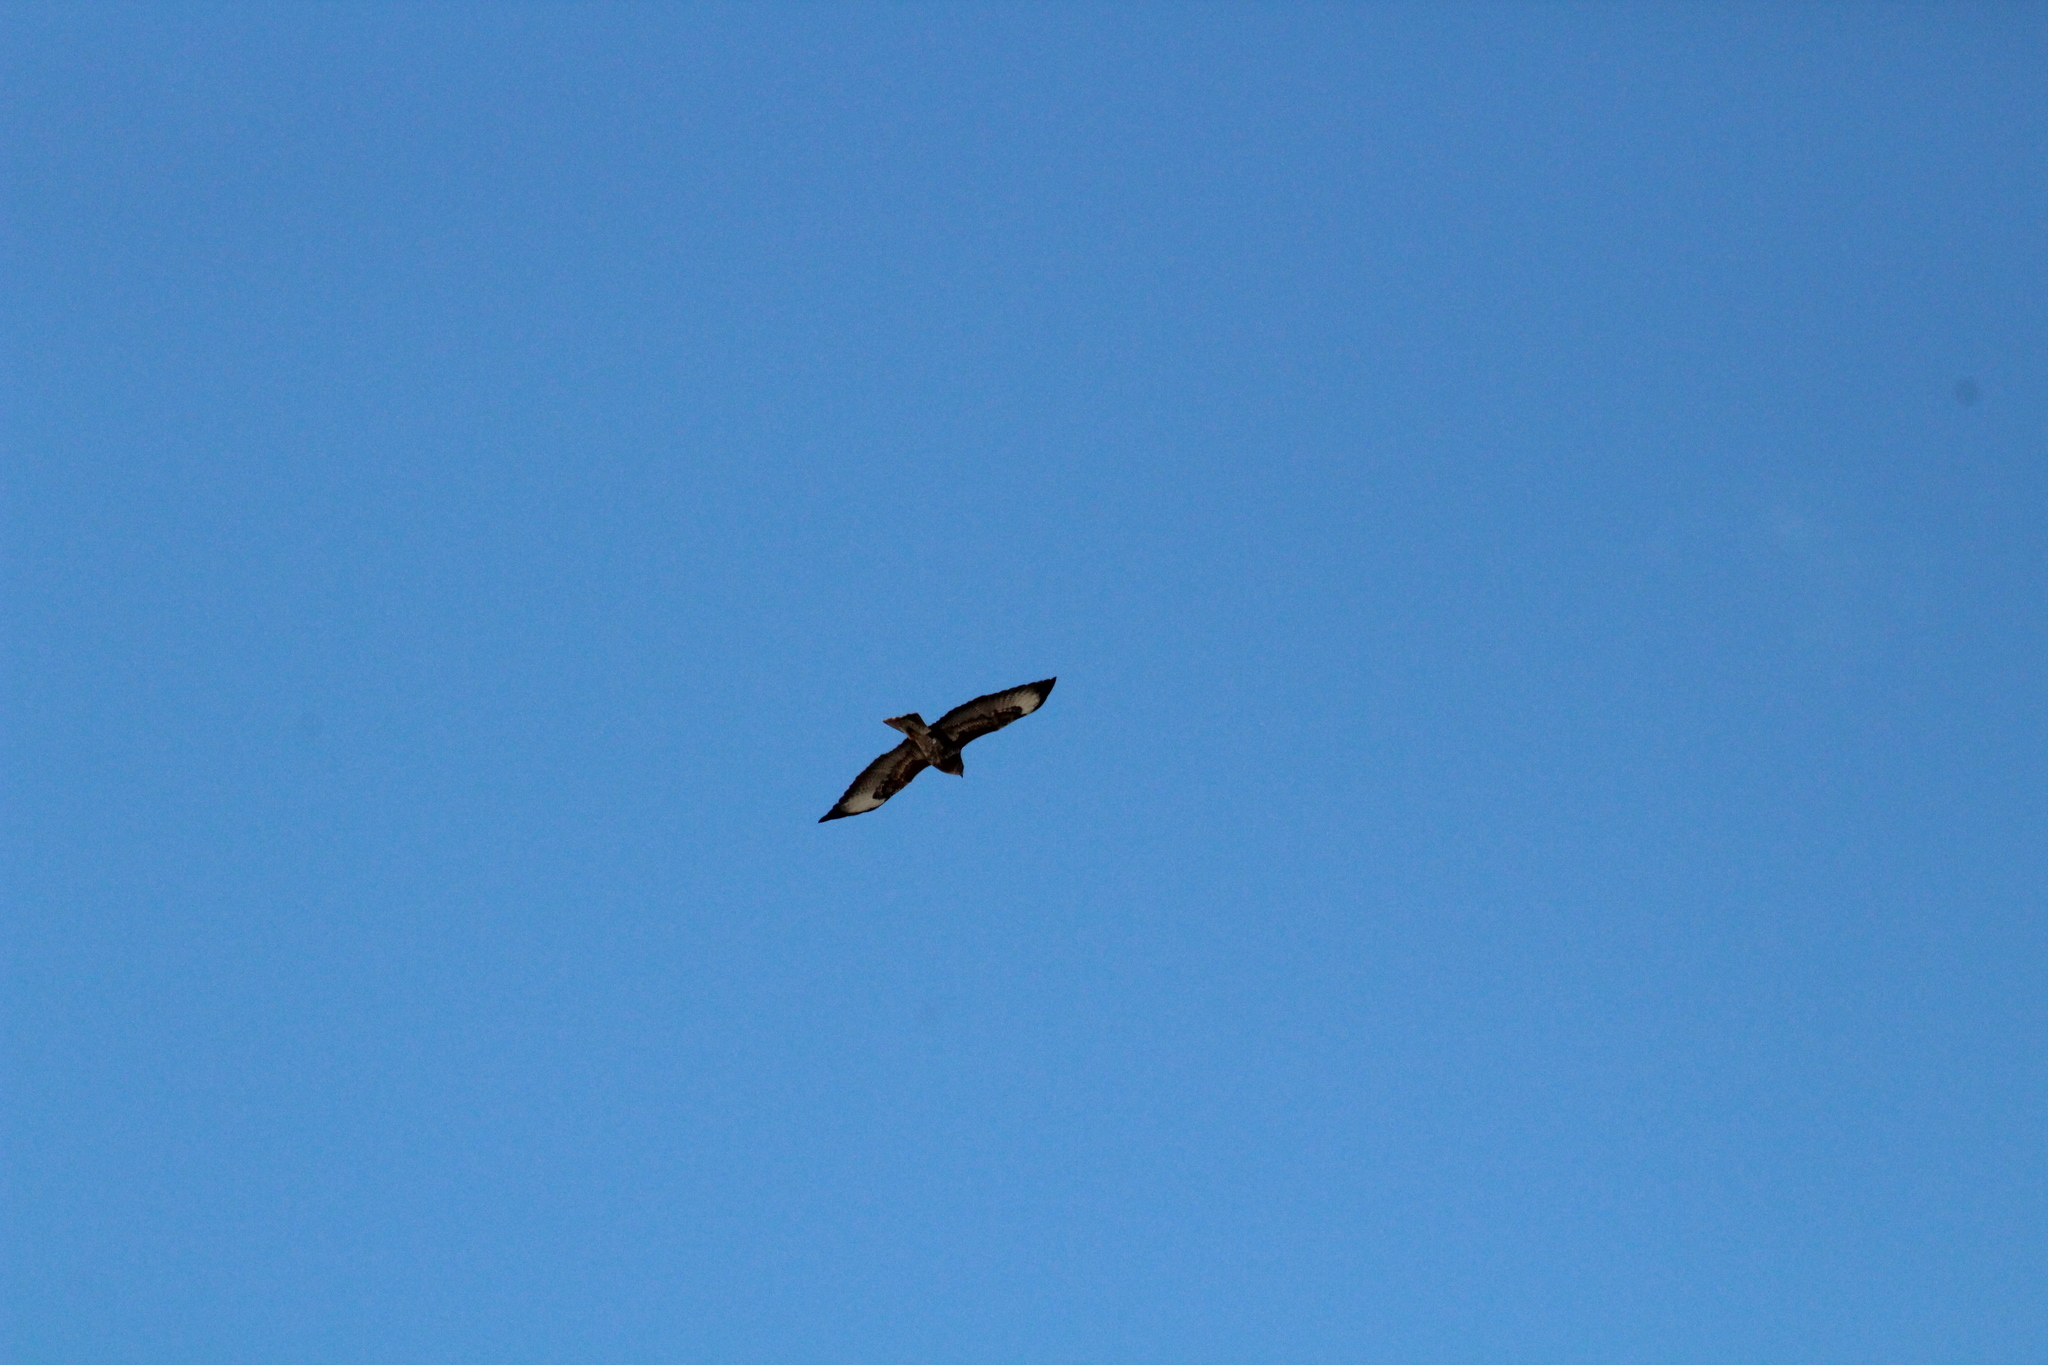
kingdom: Animalia
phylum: Chordata
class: Aves
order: Accipitriformes
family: Accipitridae
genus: Buteo
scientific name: Buteo buteo
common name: Common buzzard
